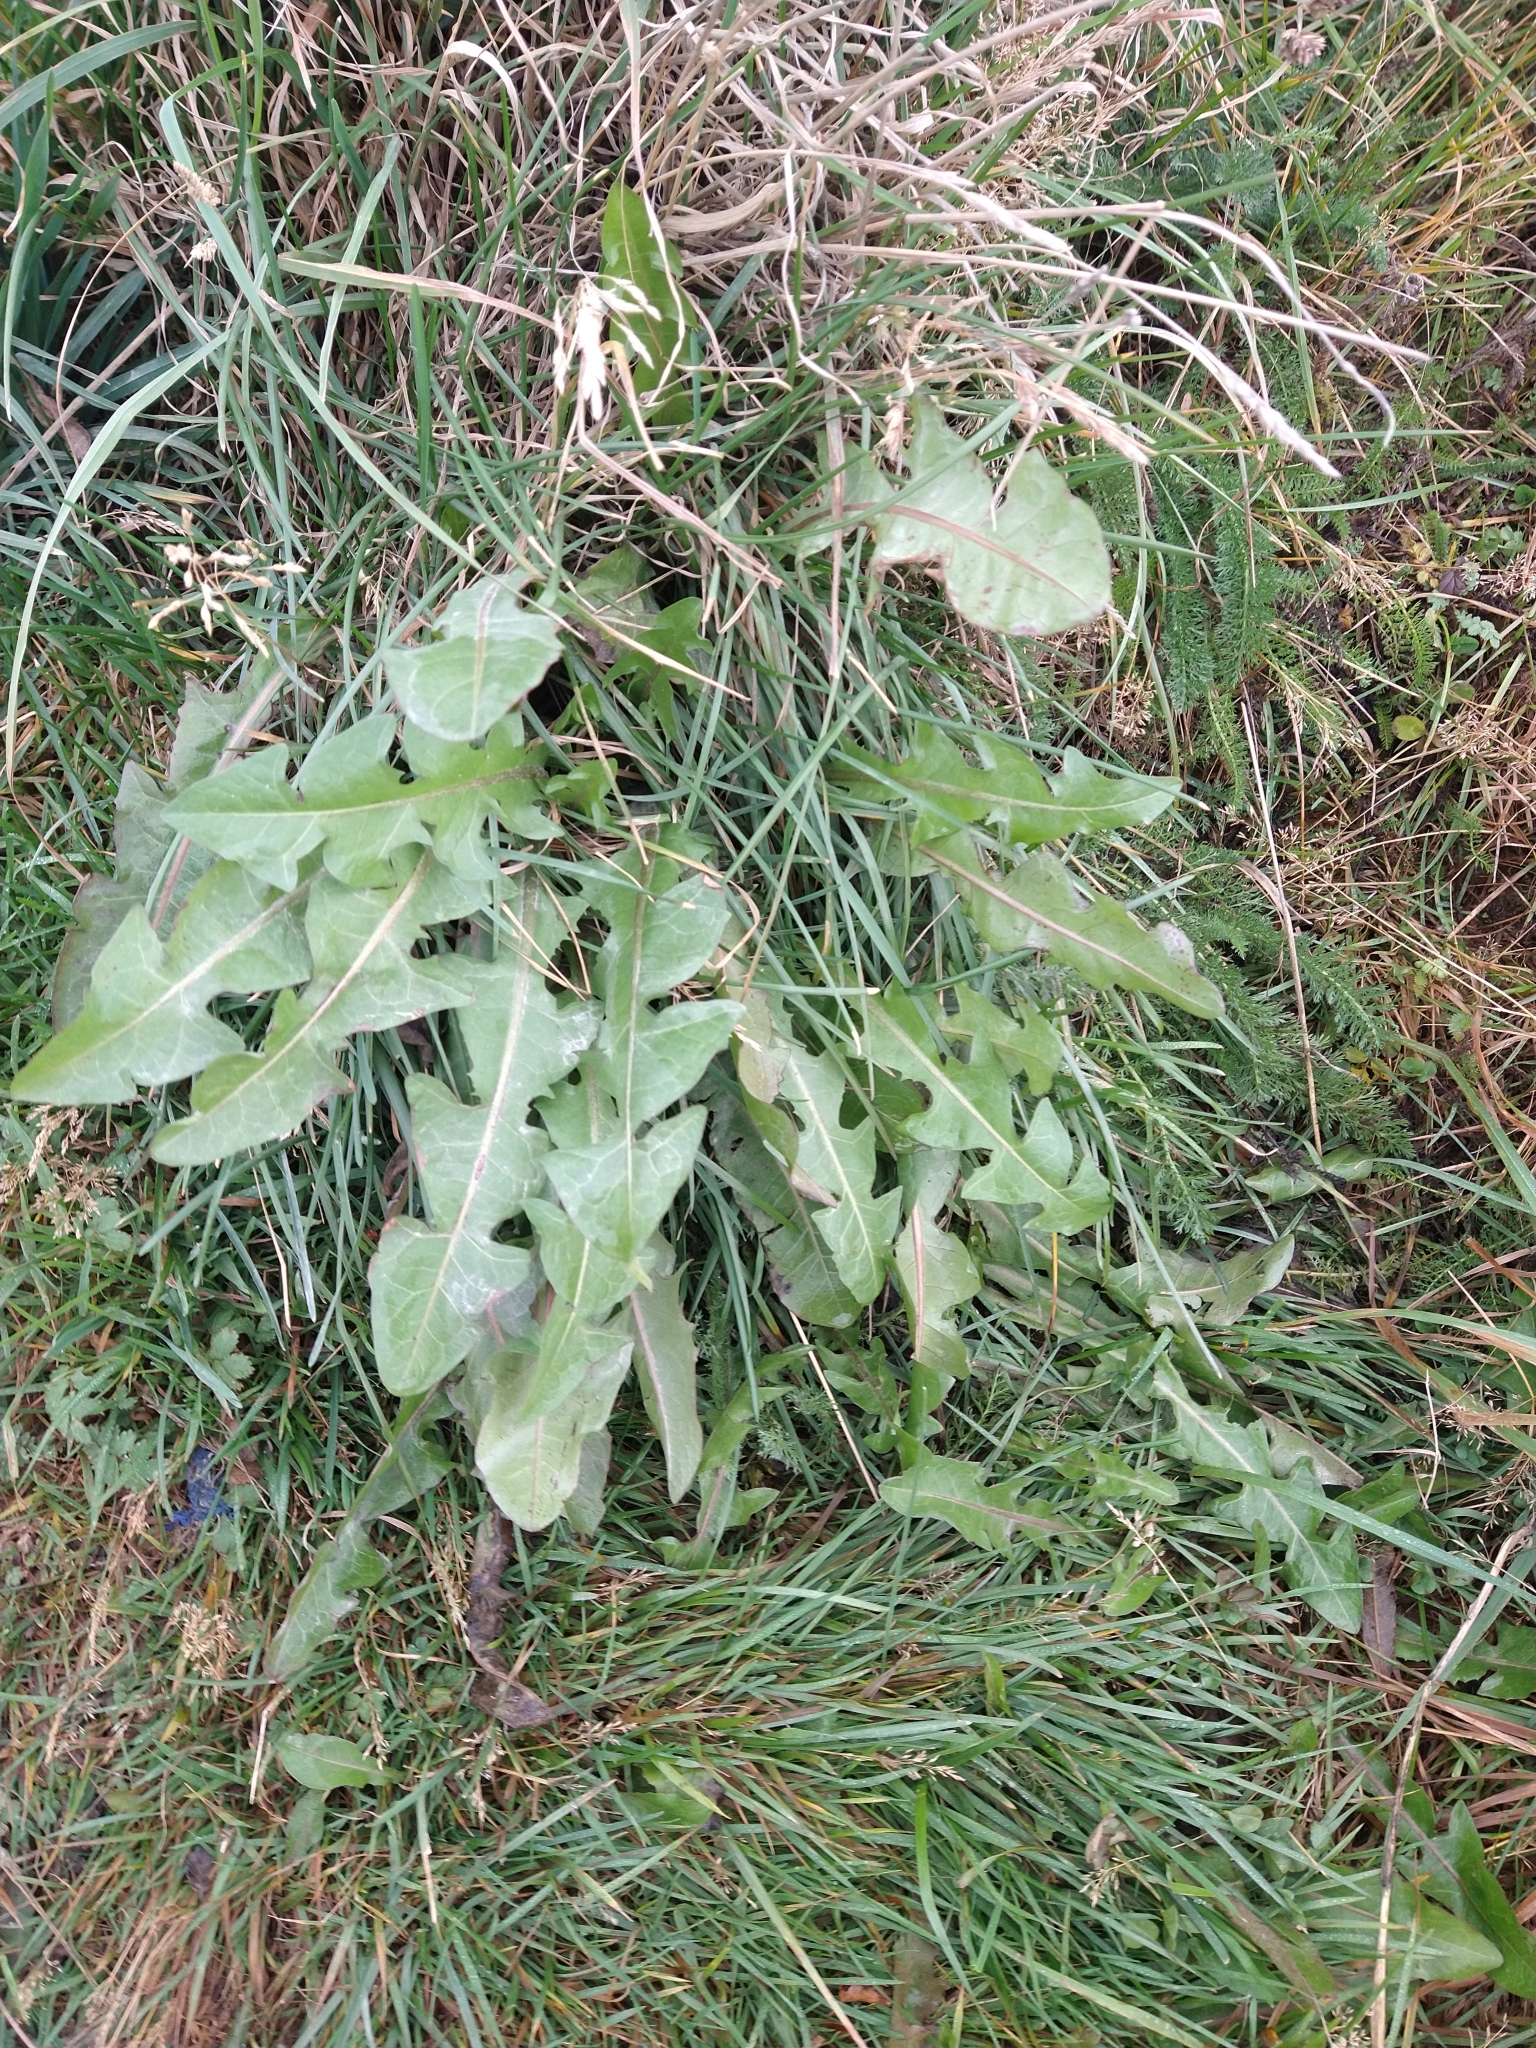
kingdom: Plantae
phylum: Tracheophyta
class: Magnoliopsida
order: Asterales
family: Asteraceae
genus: Taraxacum
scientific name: Taraxacum officinale
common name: Common dandelion
